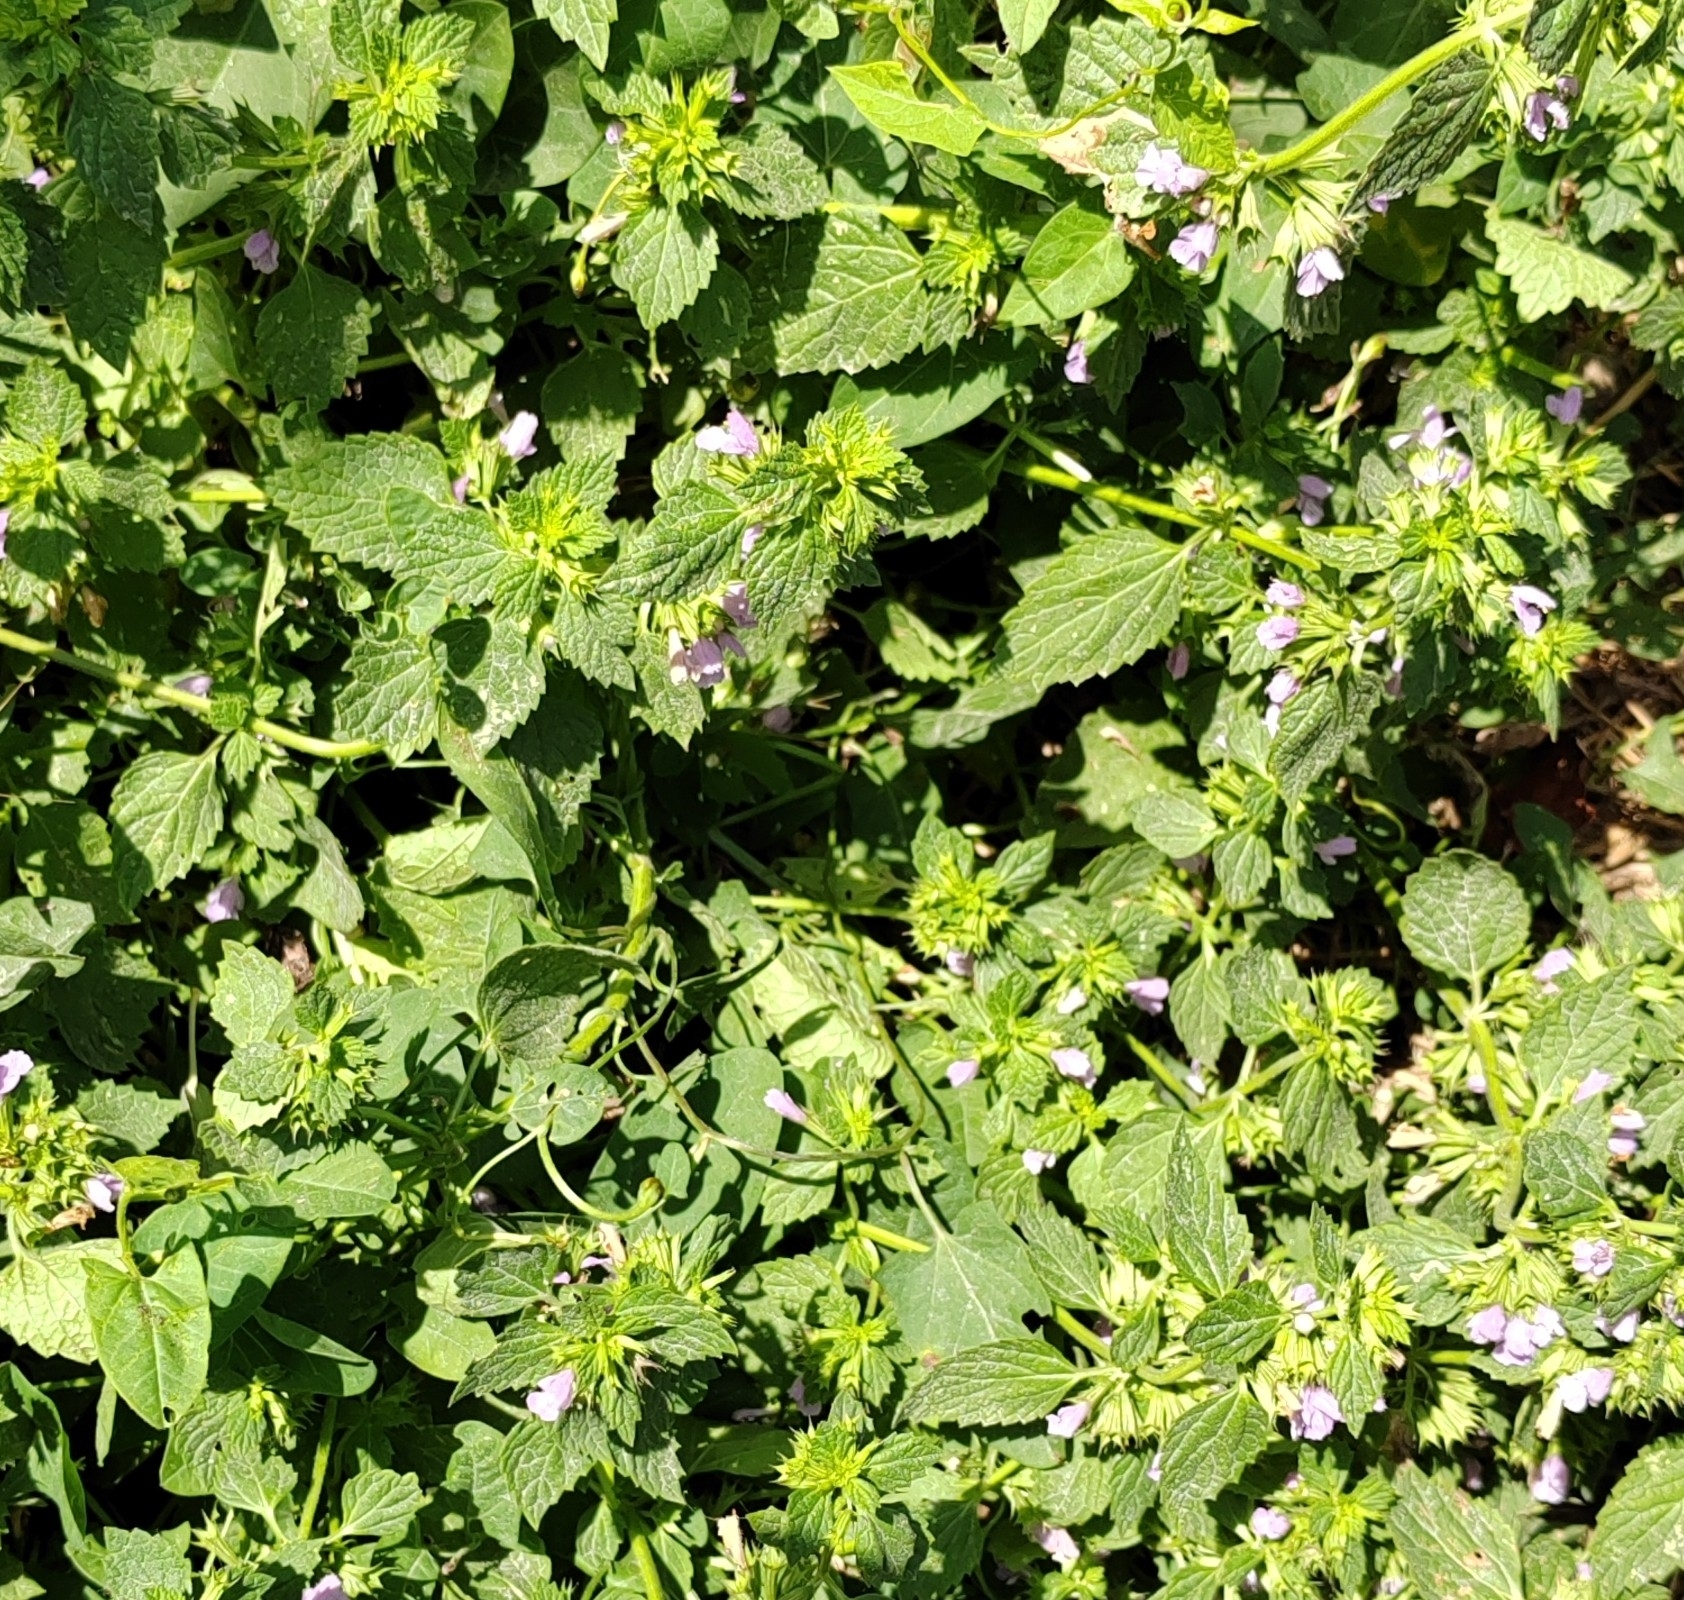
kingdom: Plantae
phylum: Tracheophyta
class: Magnoliopsida
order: Lamiales
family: Lamiaceae
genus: Ballota
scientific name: Ballota nigra
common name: Black horehound
